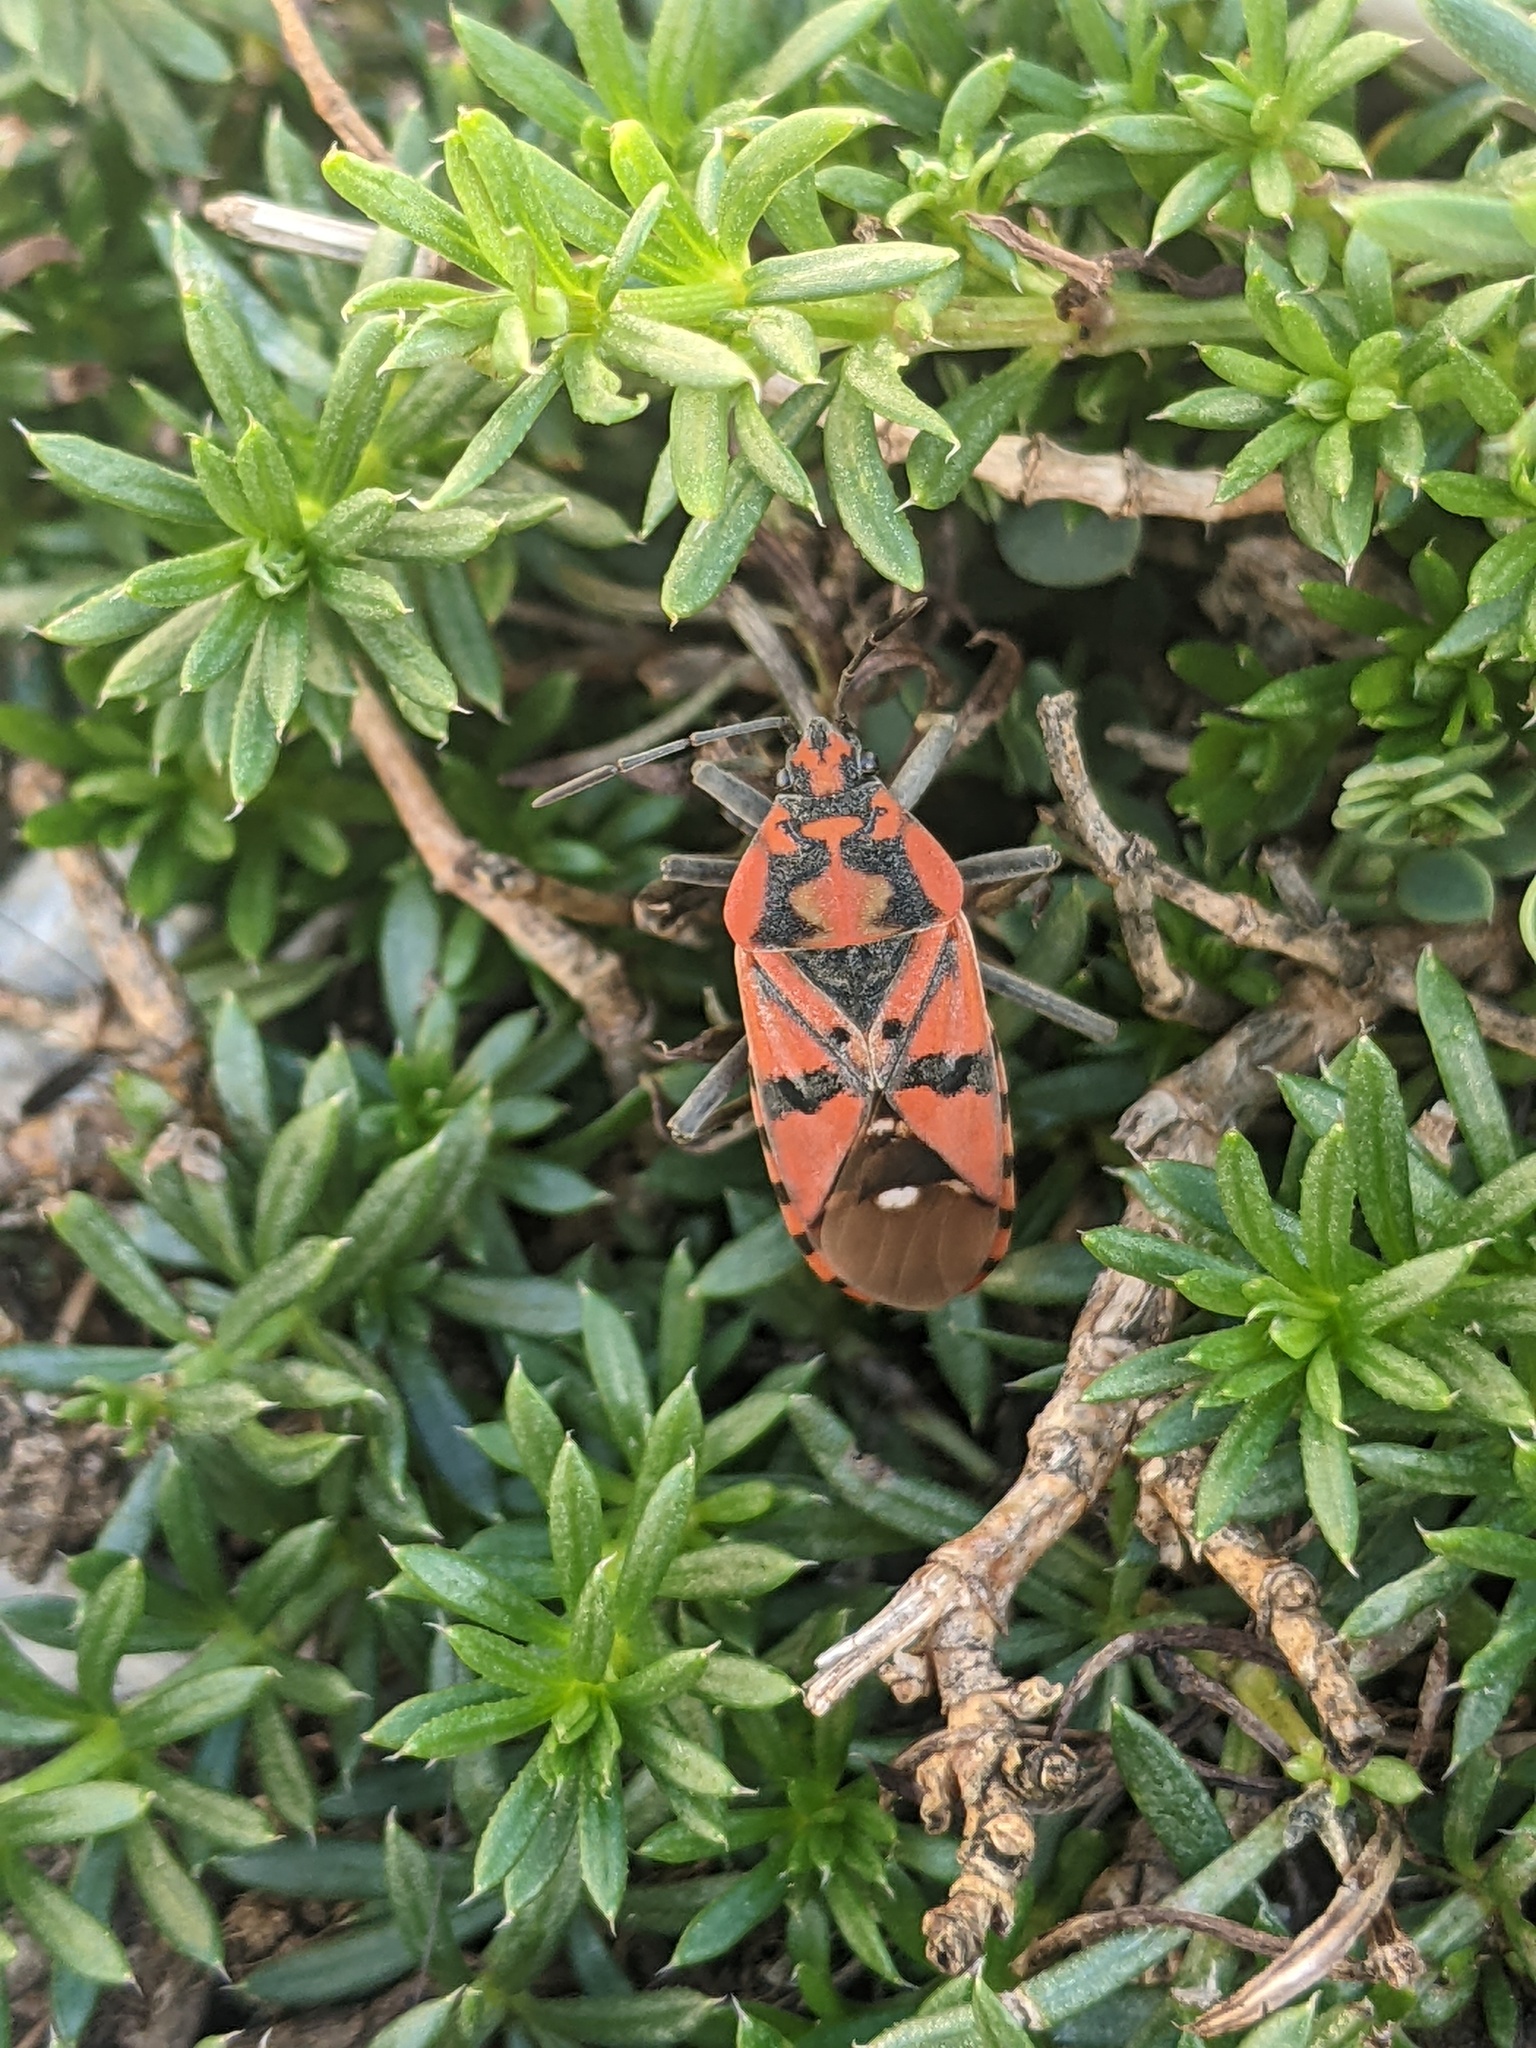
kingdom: Animalia
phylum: Arthropoda
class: Insecta
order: Hemiptera
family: Lygaeidae
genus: Spilostethus
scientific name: Spilostethus pandurus
